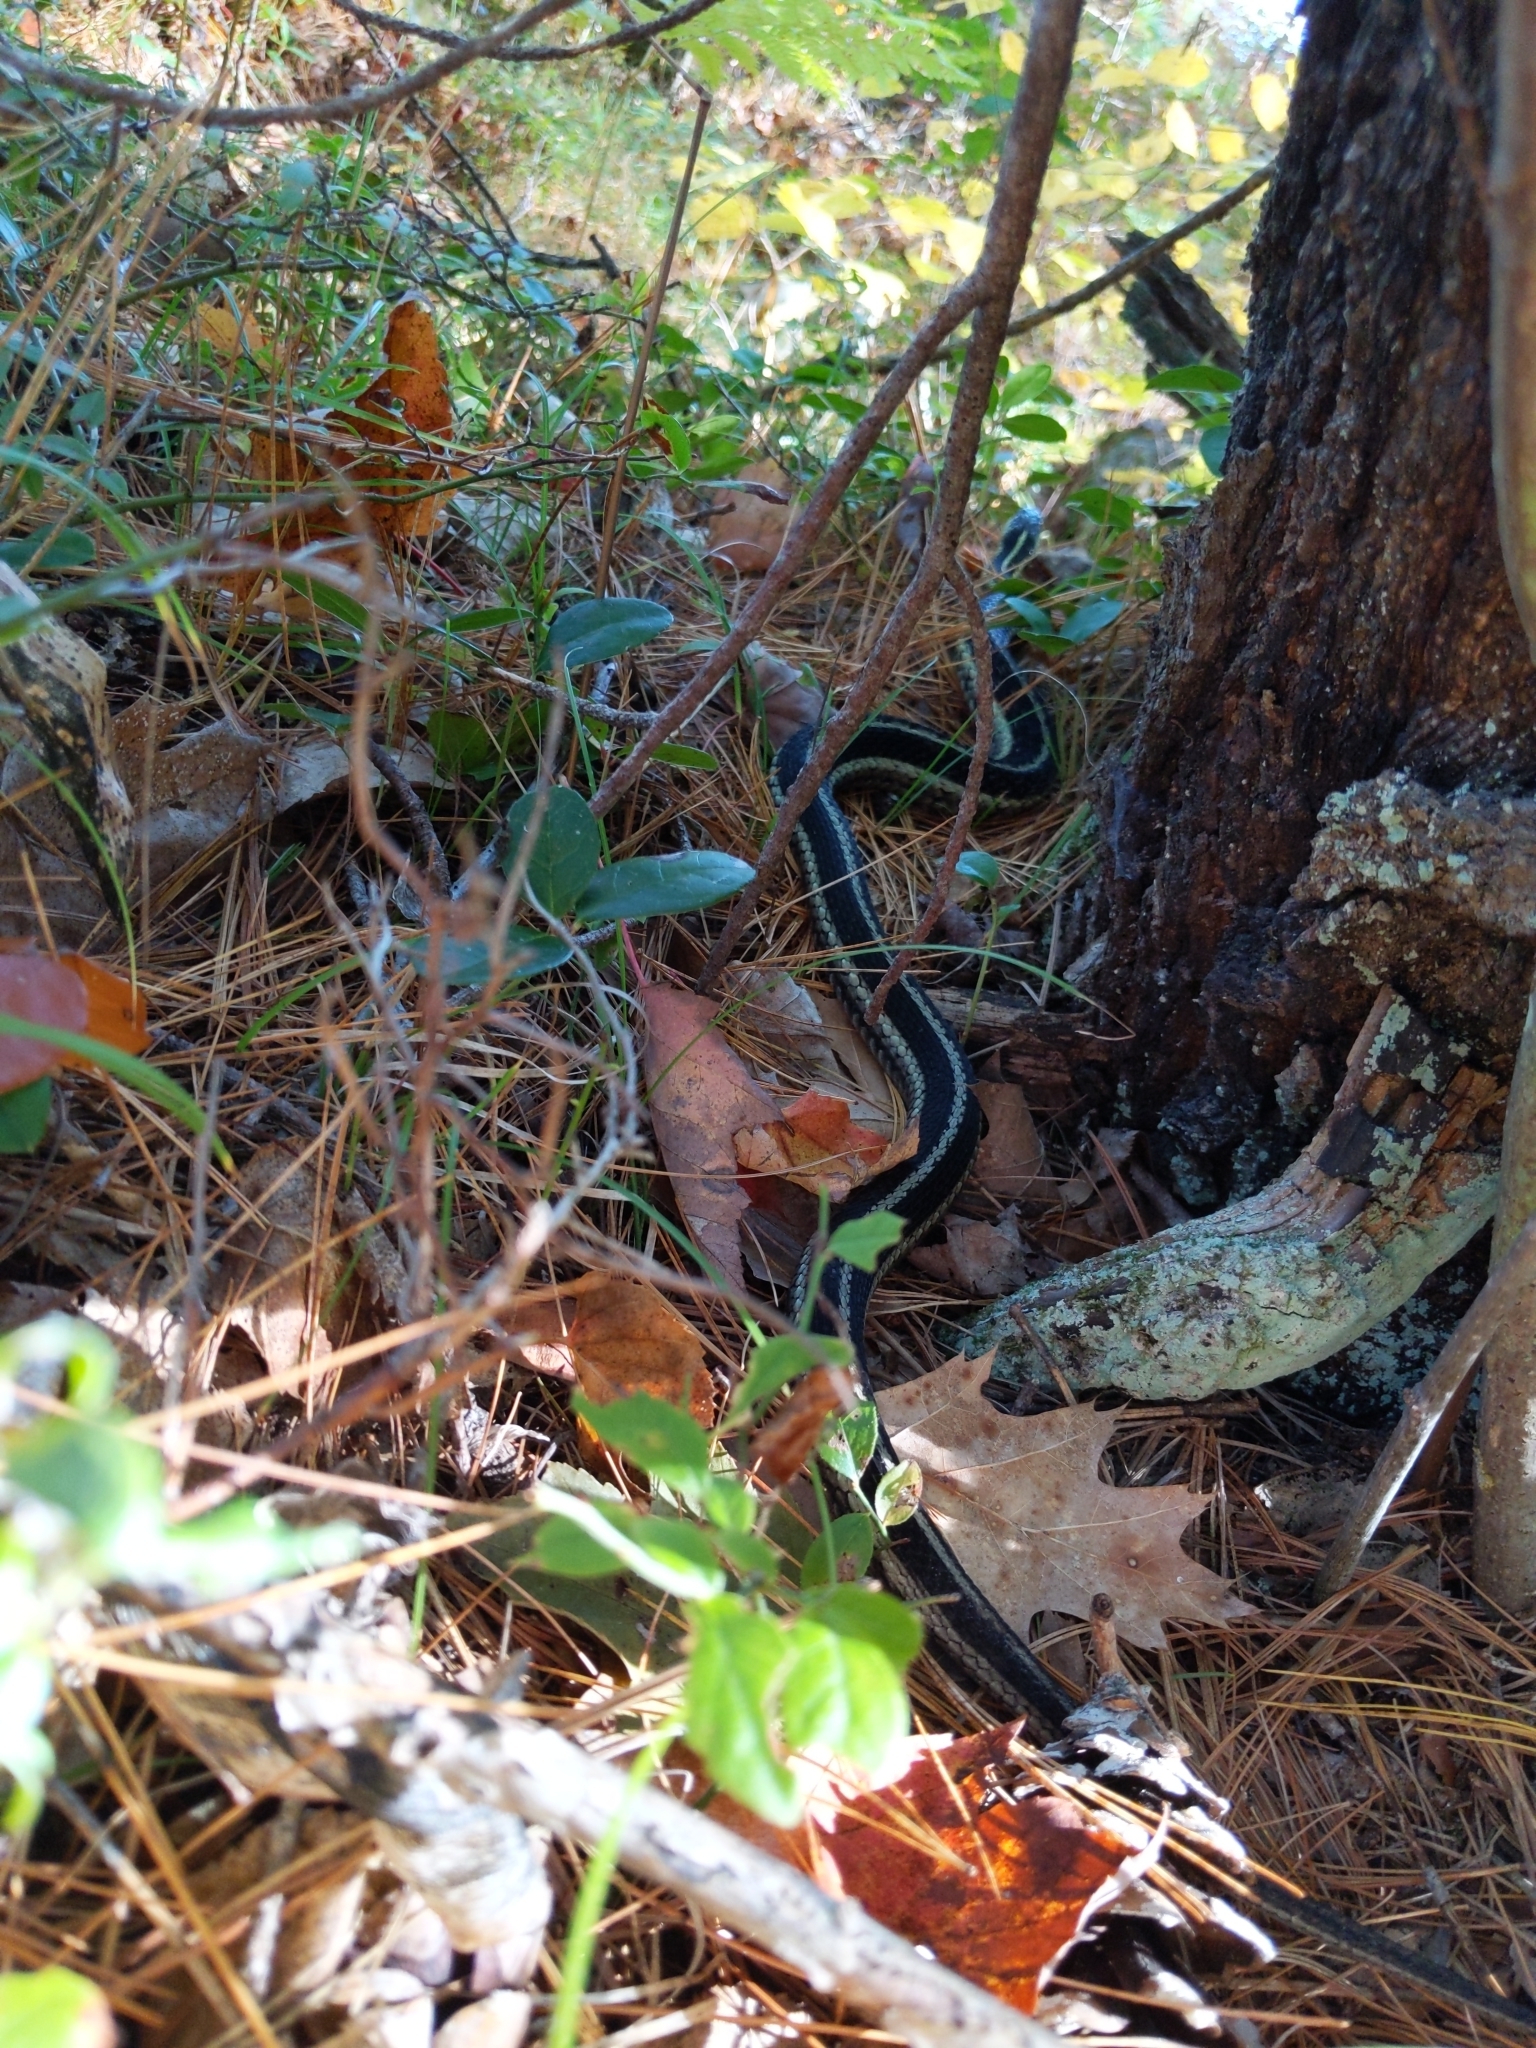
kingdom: Animalia
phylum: Chordata
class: Squamata
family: Colubridae
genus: Thamnophis
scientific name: Thamnophis sirtalis
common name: Common garter snake
